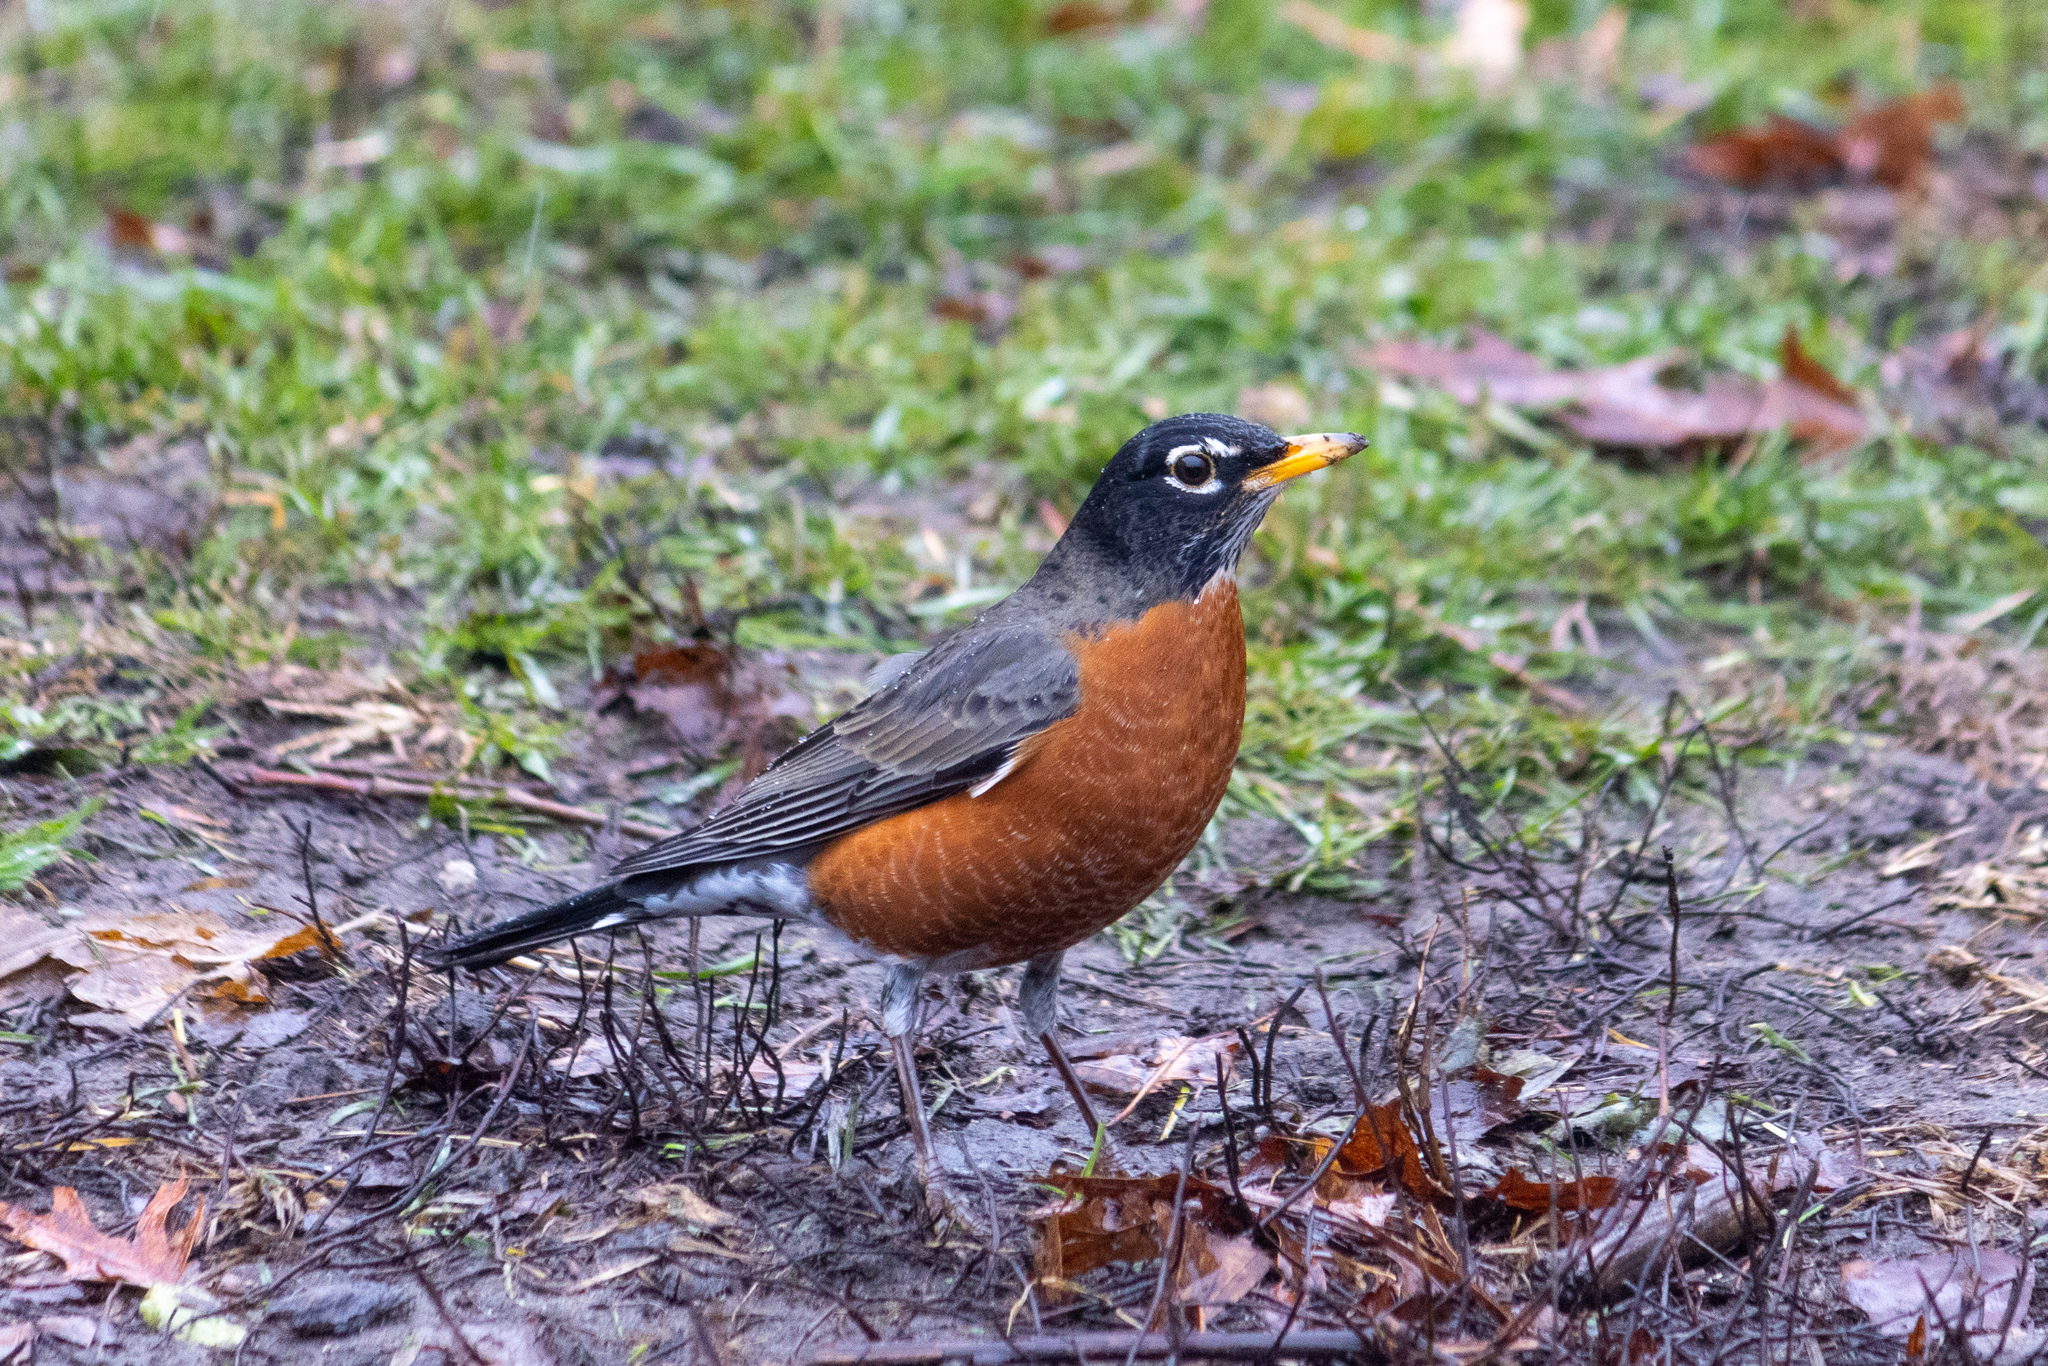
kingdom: Animalia
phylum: Chordata
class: Aves
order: Passeriformes
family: Turdidae
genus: Turdus
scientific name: Turdus migratorius
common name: American robin
